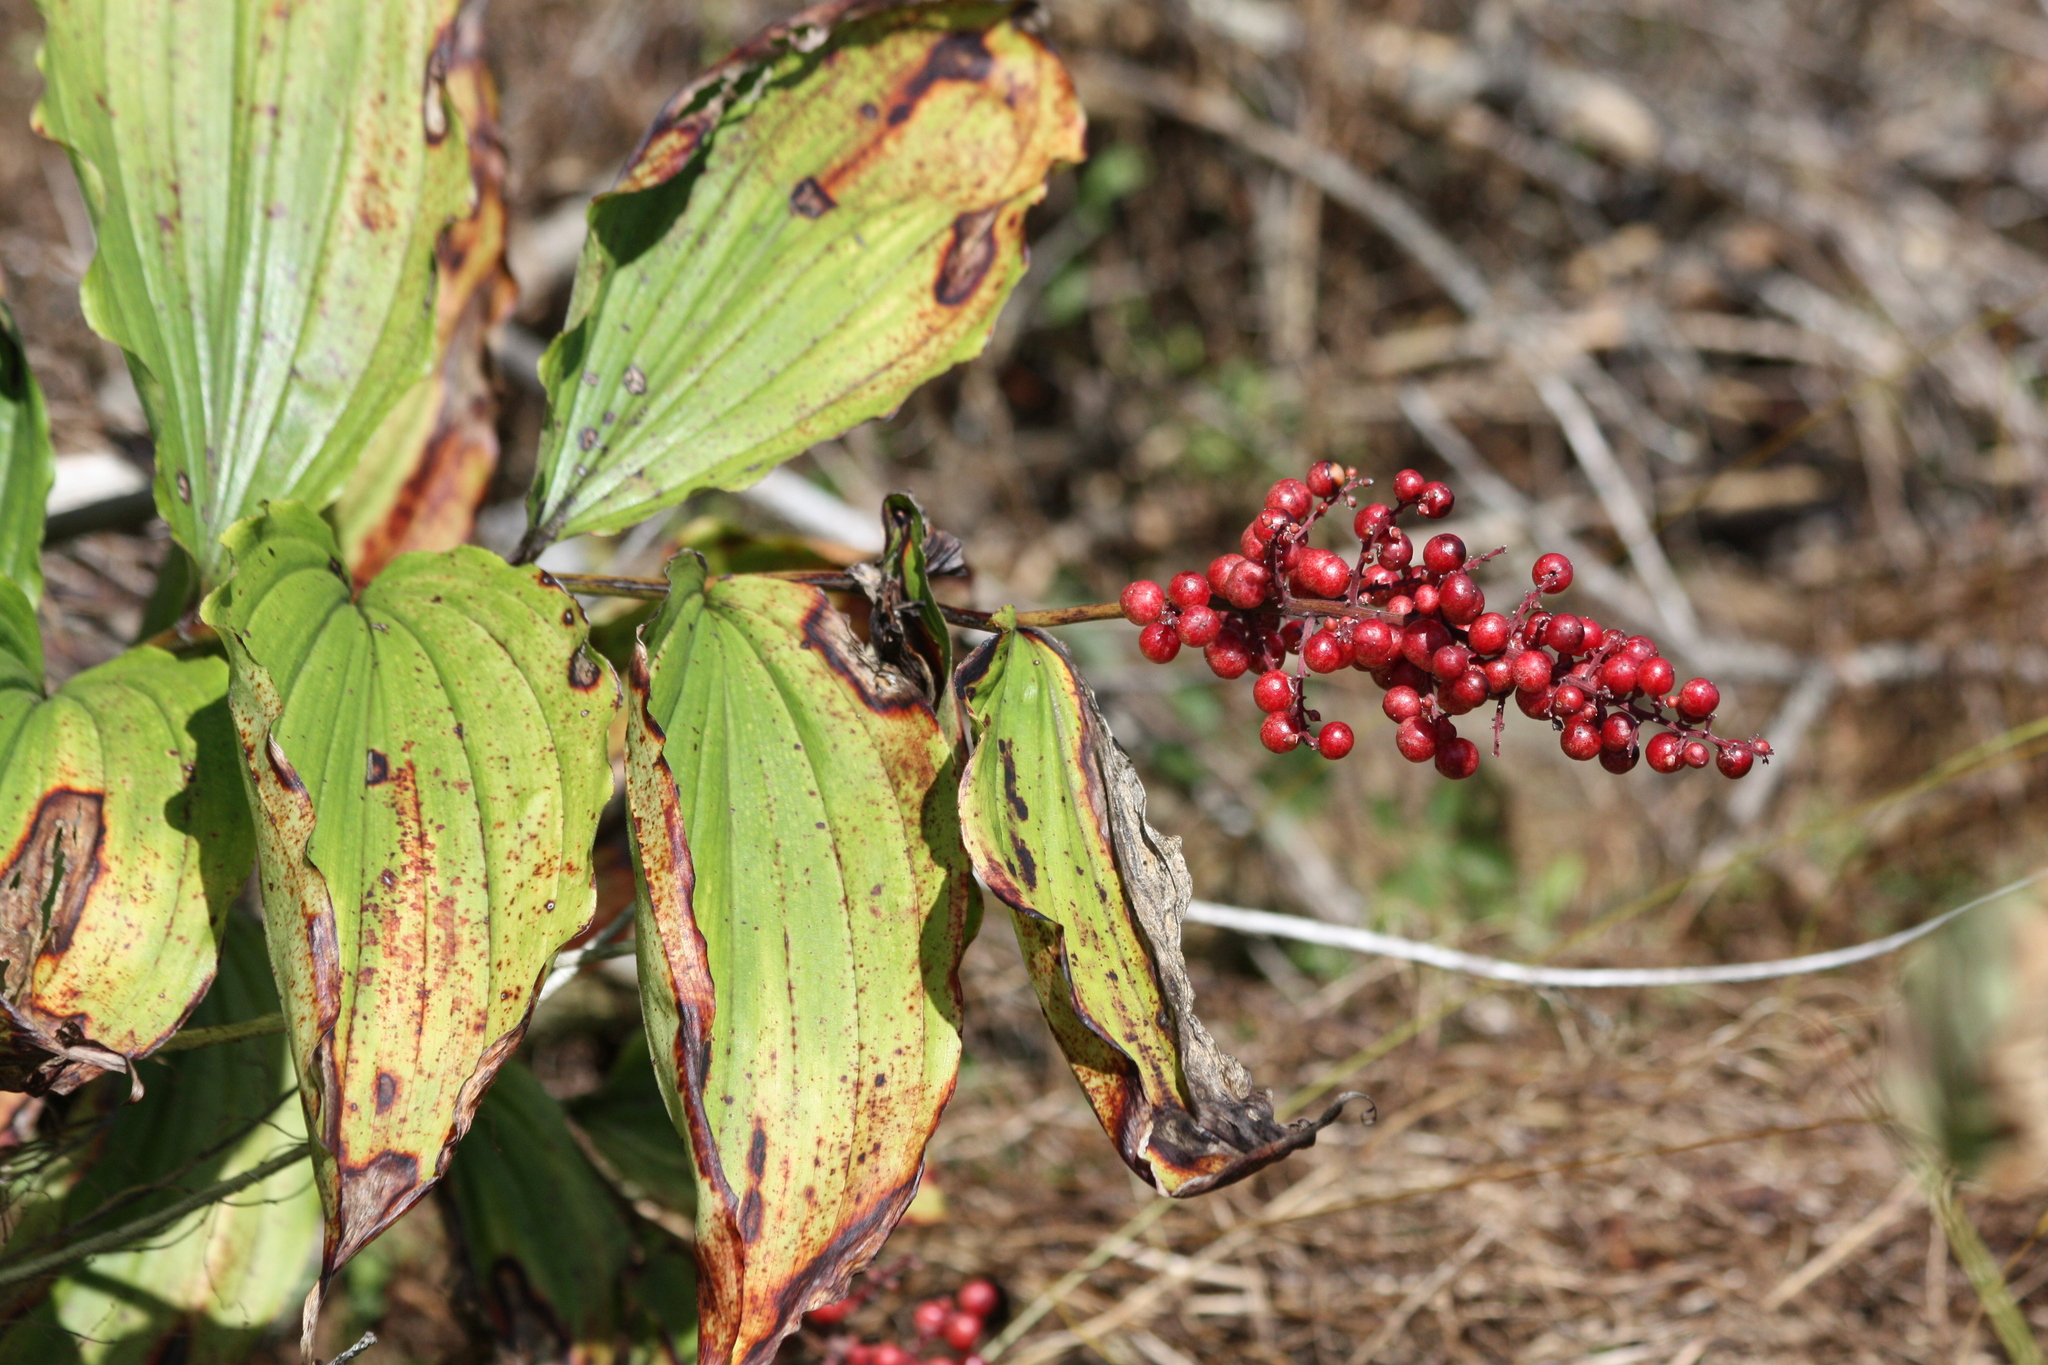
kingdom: Plantae
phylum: Tracheophyta
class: Liliopsida
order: Asparagales
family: Asparagaceae
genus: Maianthemum
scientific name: Maianthemum racemosum
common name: False spikenard
